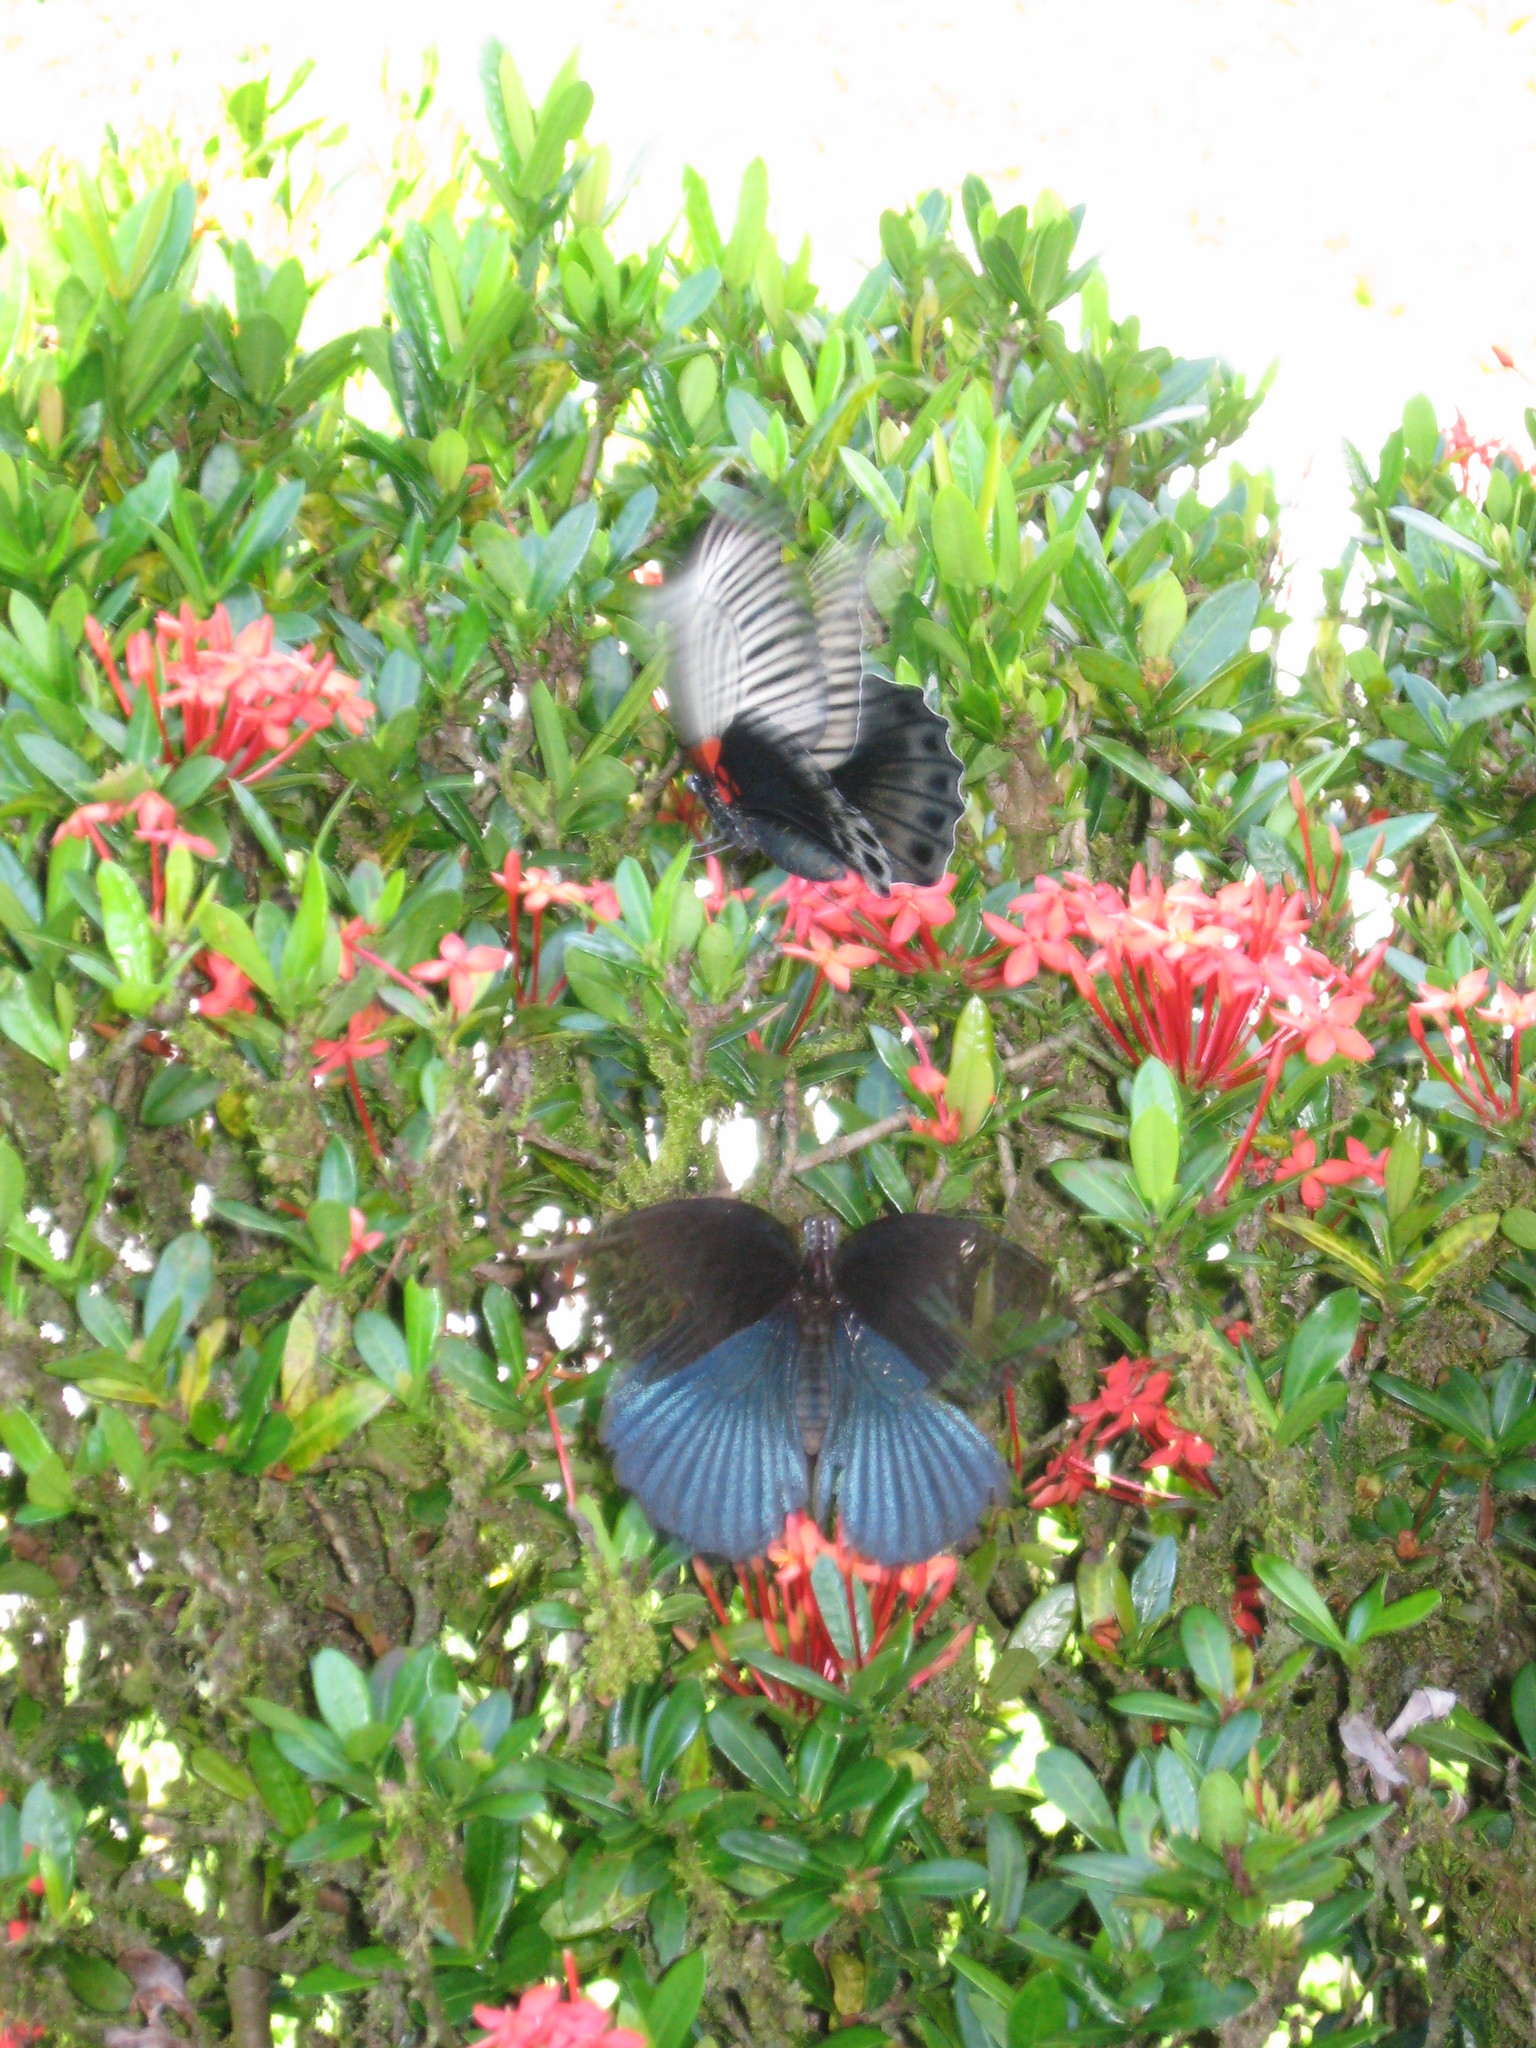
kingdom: Animalia
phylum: Arthropoda
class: Insecta
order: Lepidoptera
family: Papilionidae
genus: Papilio
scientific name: Papilio memnon
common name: Great mormon
